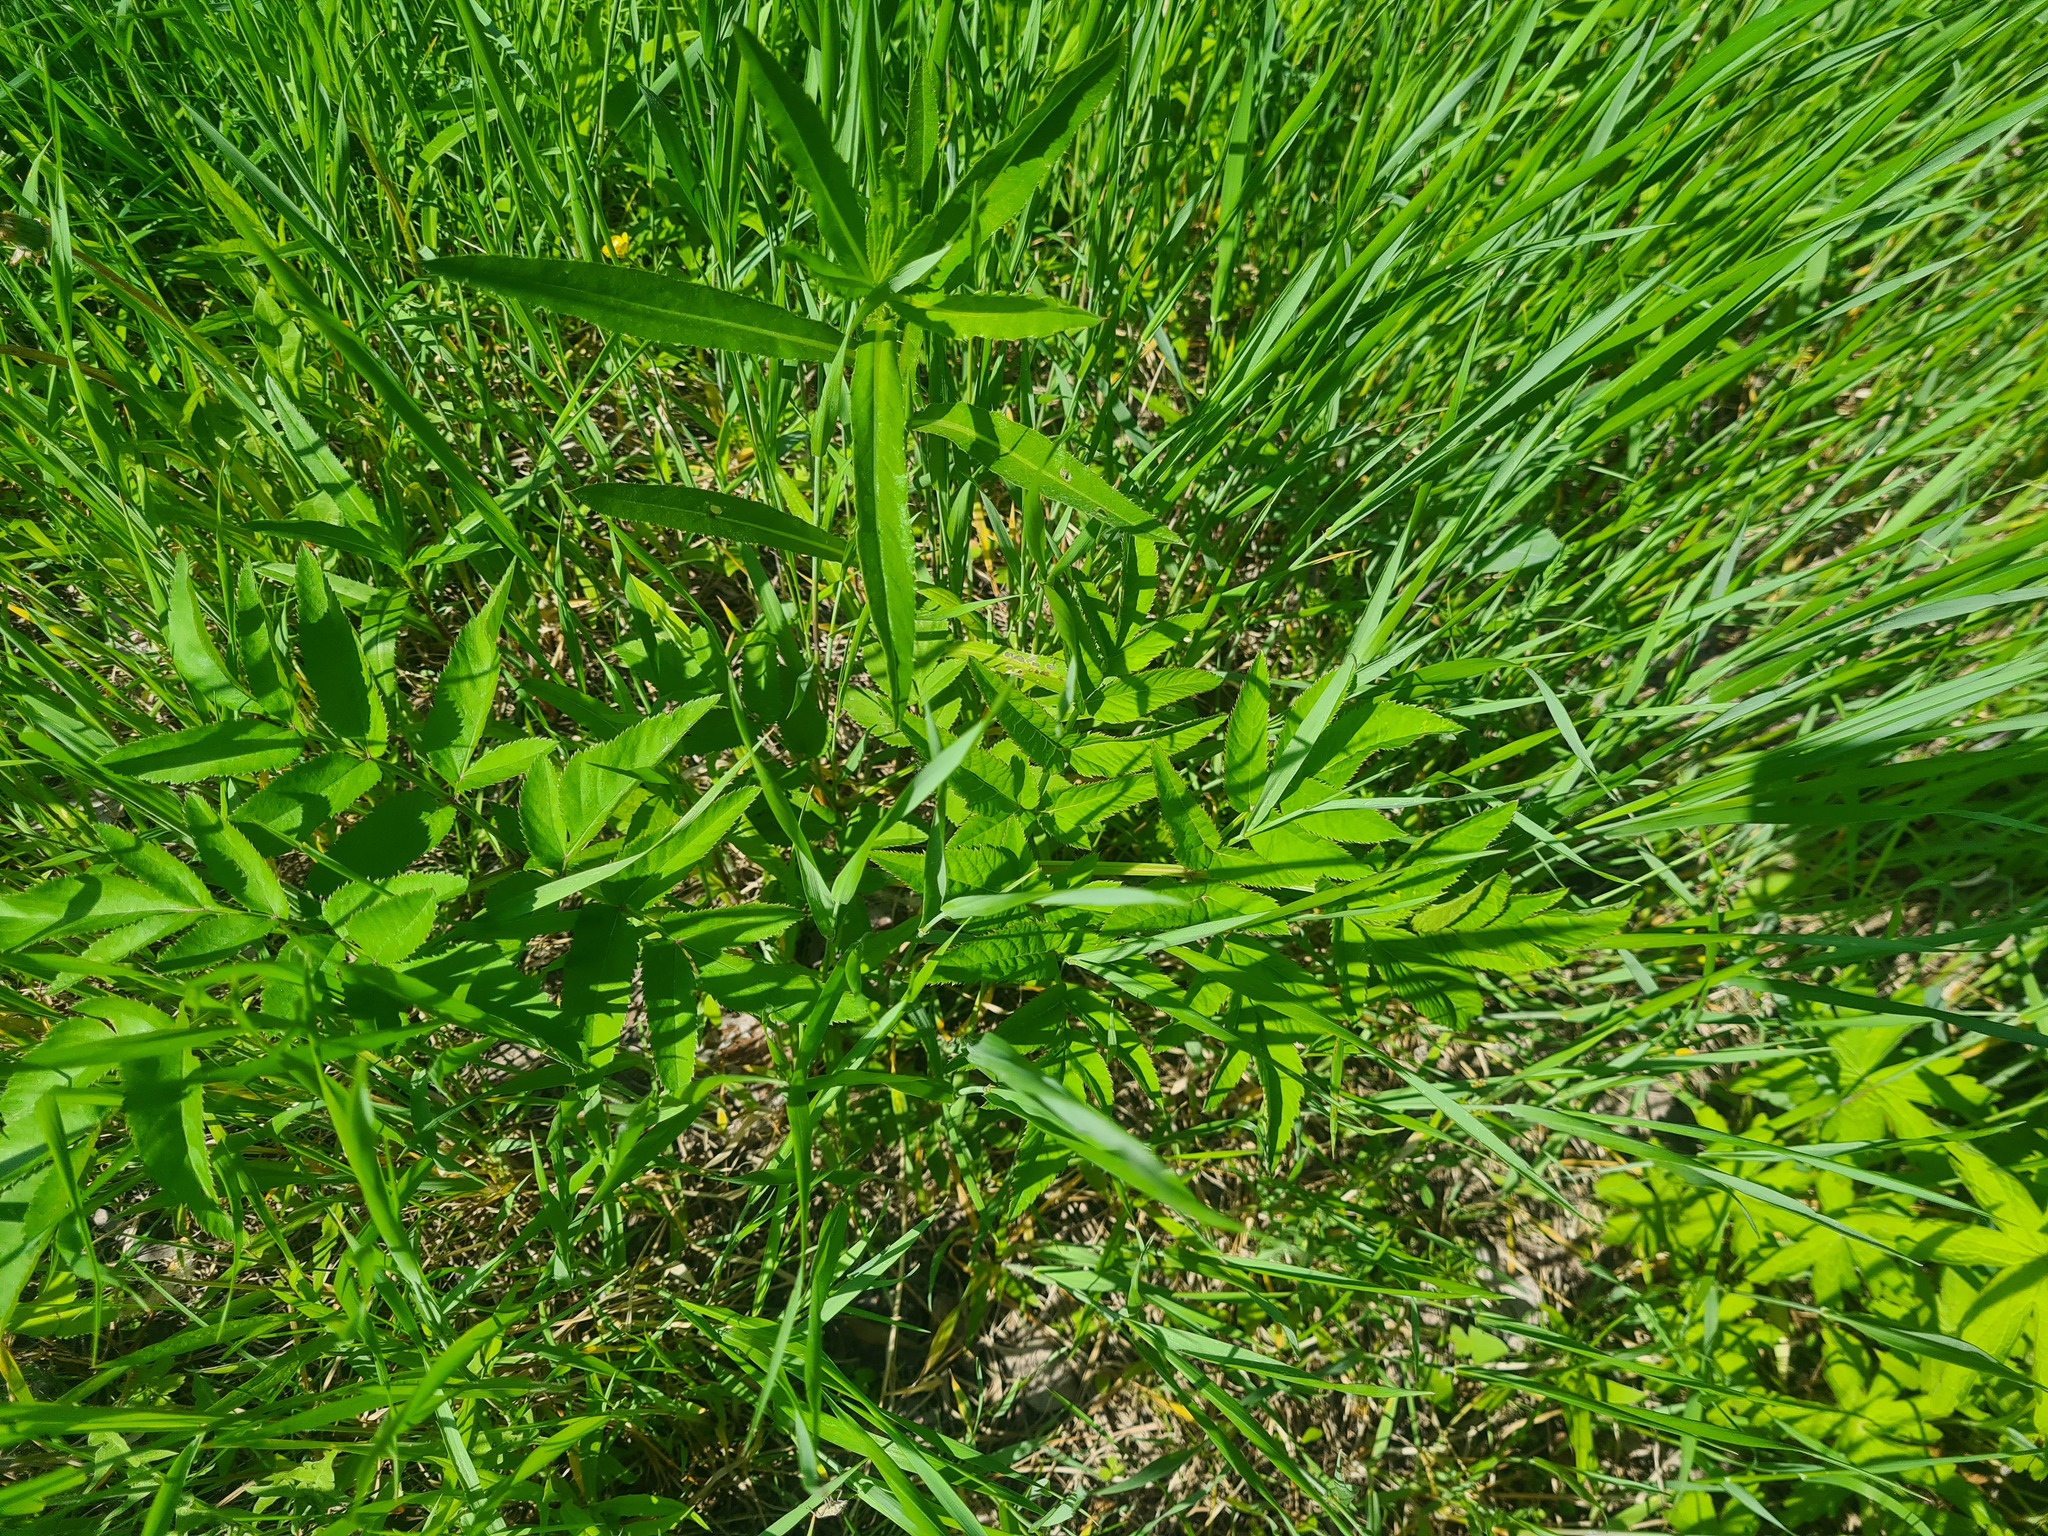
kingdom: Plantae
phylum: Tracheophyta
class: Magnoliopsida
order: Apiales
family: Apiaceae
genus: Angelica
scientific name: Angelica sylvestris
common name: Wild angelica
